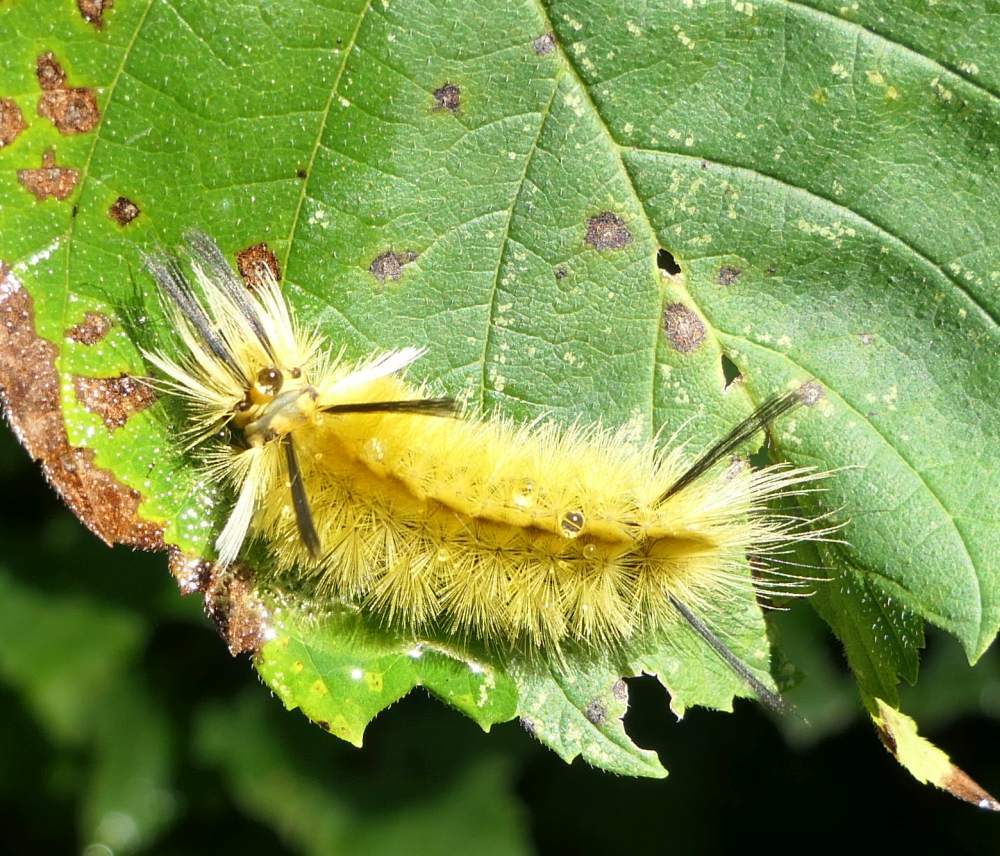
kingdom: Animalia
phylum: Arthropoda
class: Insecta
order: Lepidoptera
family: Erebidae
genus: Halysidota
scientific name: Halysidota tessellaris
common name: Banded tussock moth
